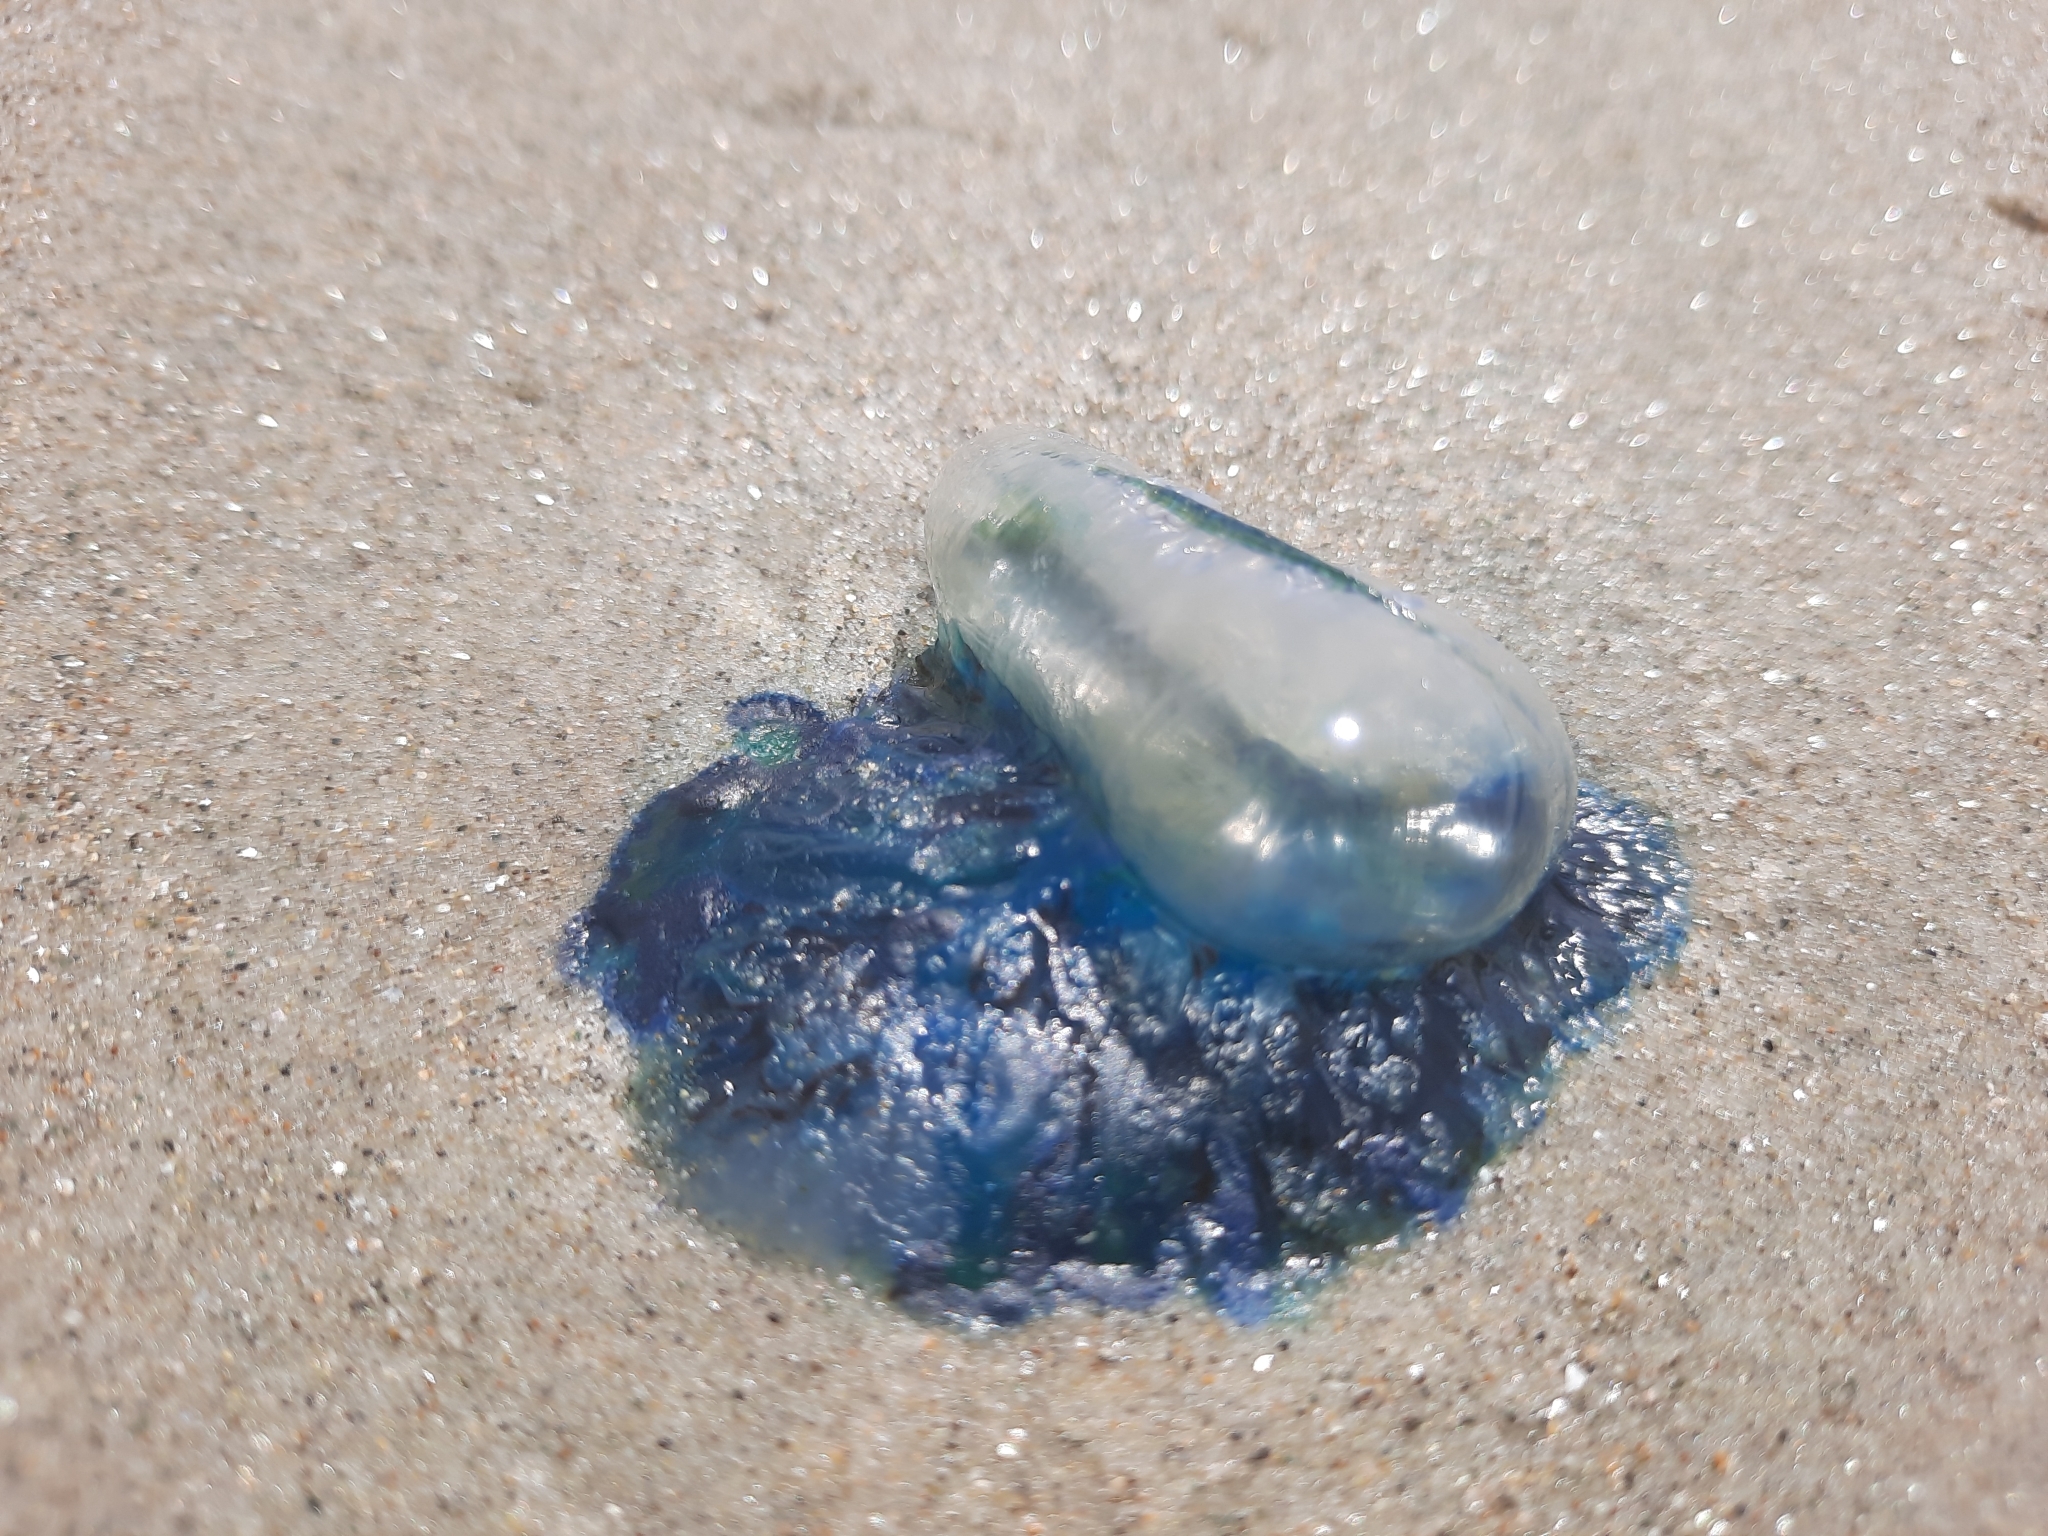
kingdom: Animalia
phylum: Cnidaria
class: Hydrozoa
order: Siphonophorae
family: Physaliidae
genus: Physalia
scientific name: Physalia physalis
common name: Portuguese man-of-war
